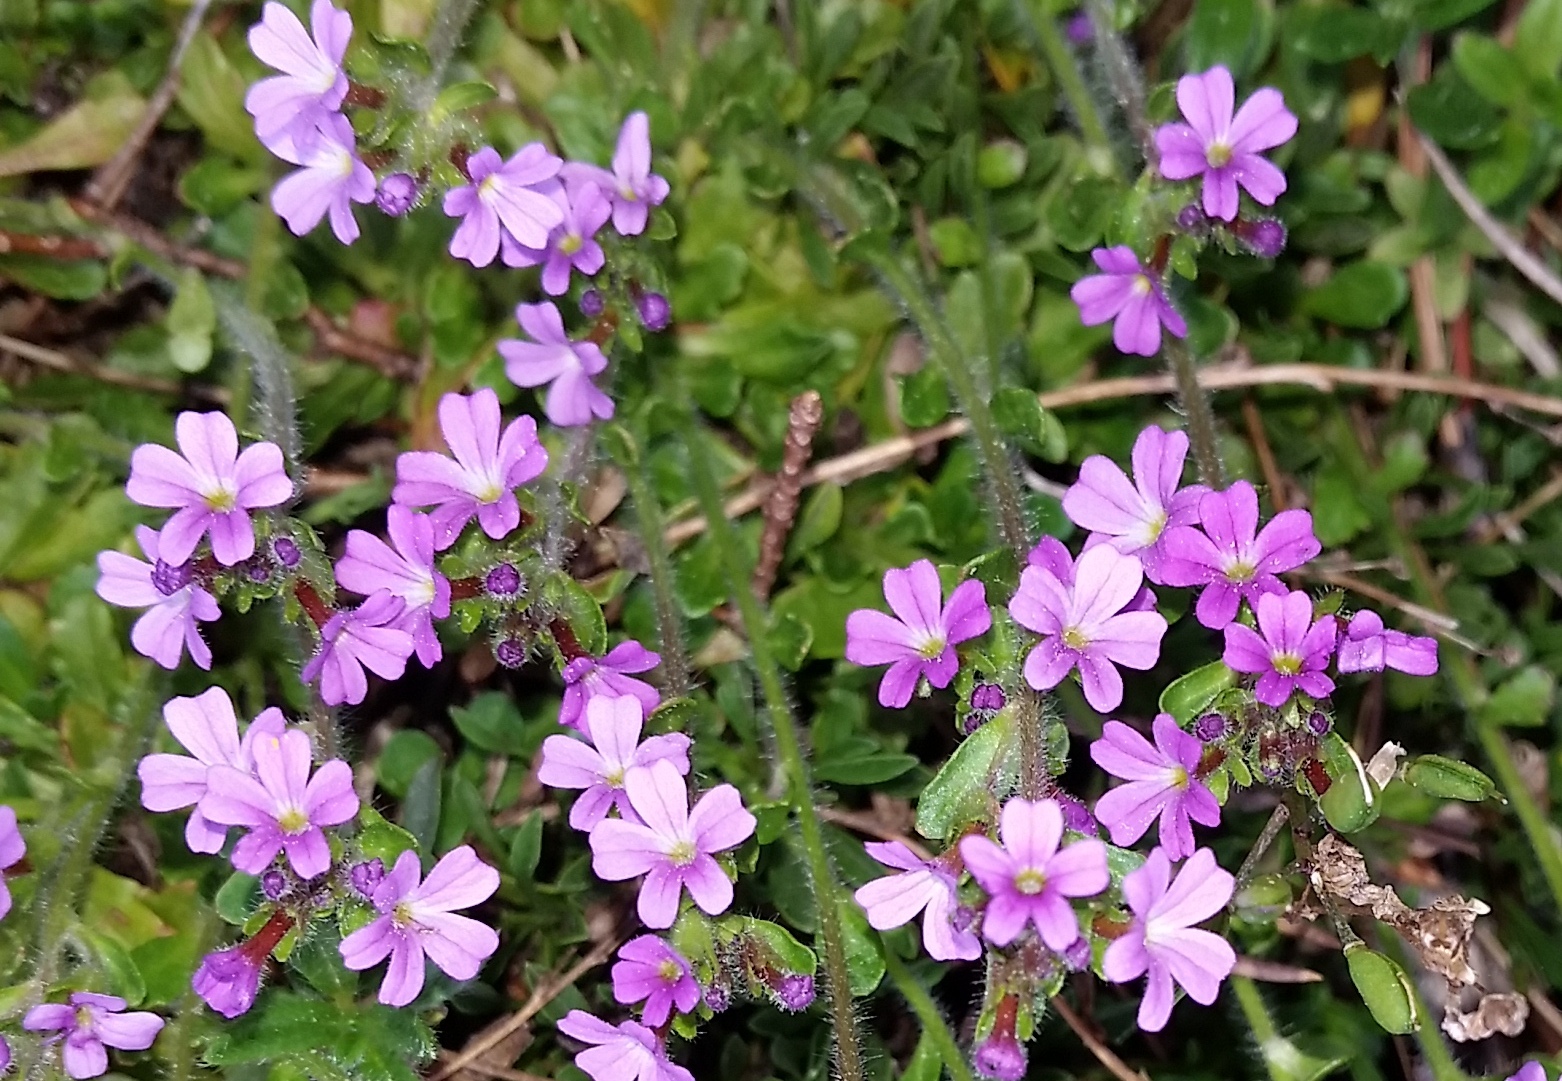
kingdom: Plantae
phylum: Tracheophyta
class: Magnoliopsida
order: Lamiales
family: Plantaginaceae
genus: Erinus
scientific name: Erinus alpinus
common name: Fairy foxglove
